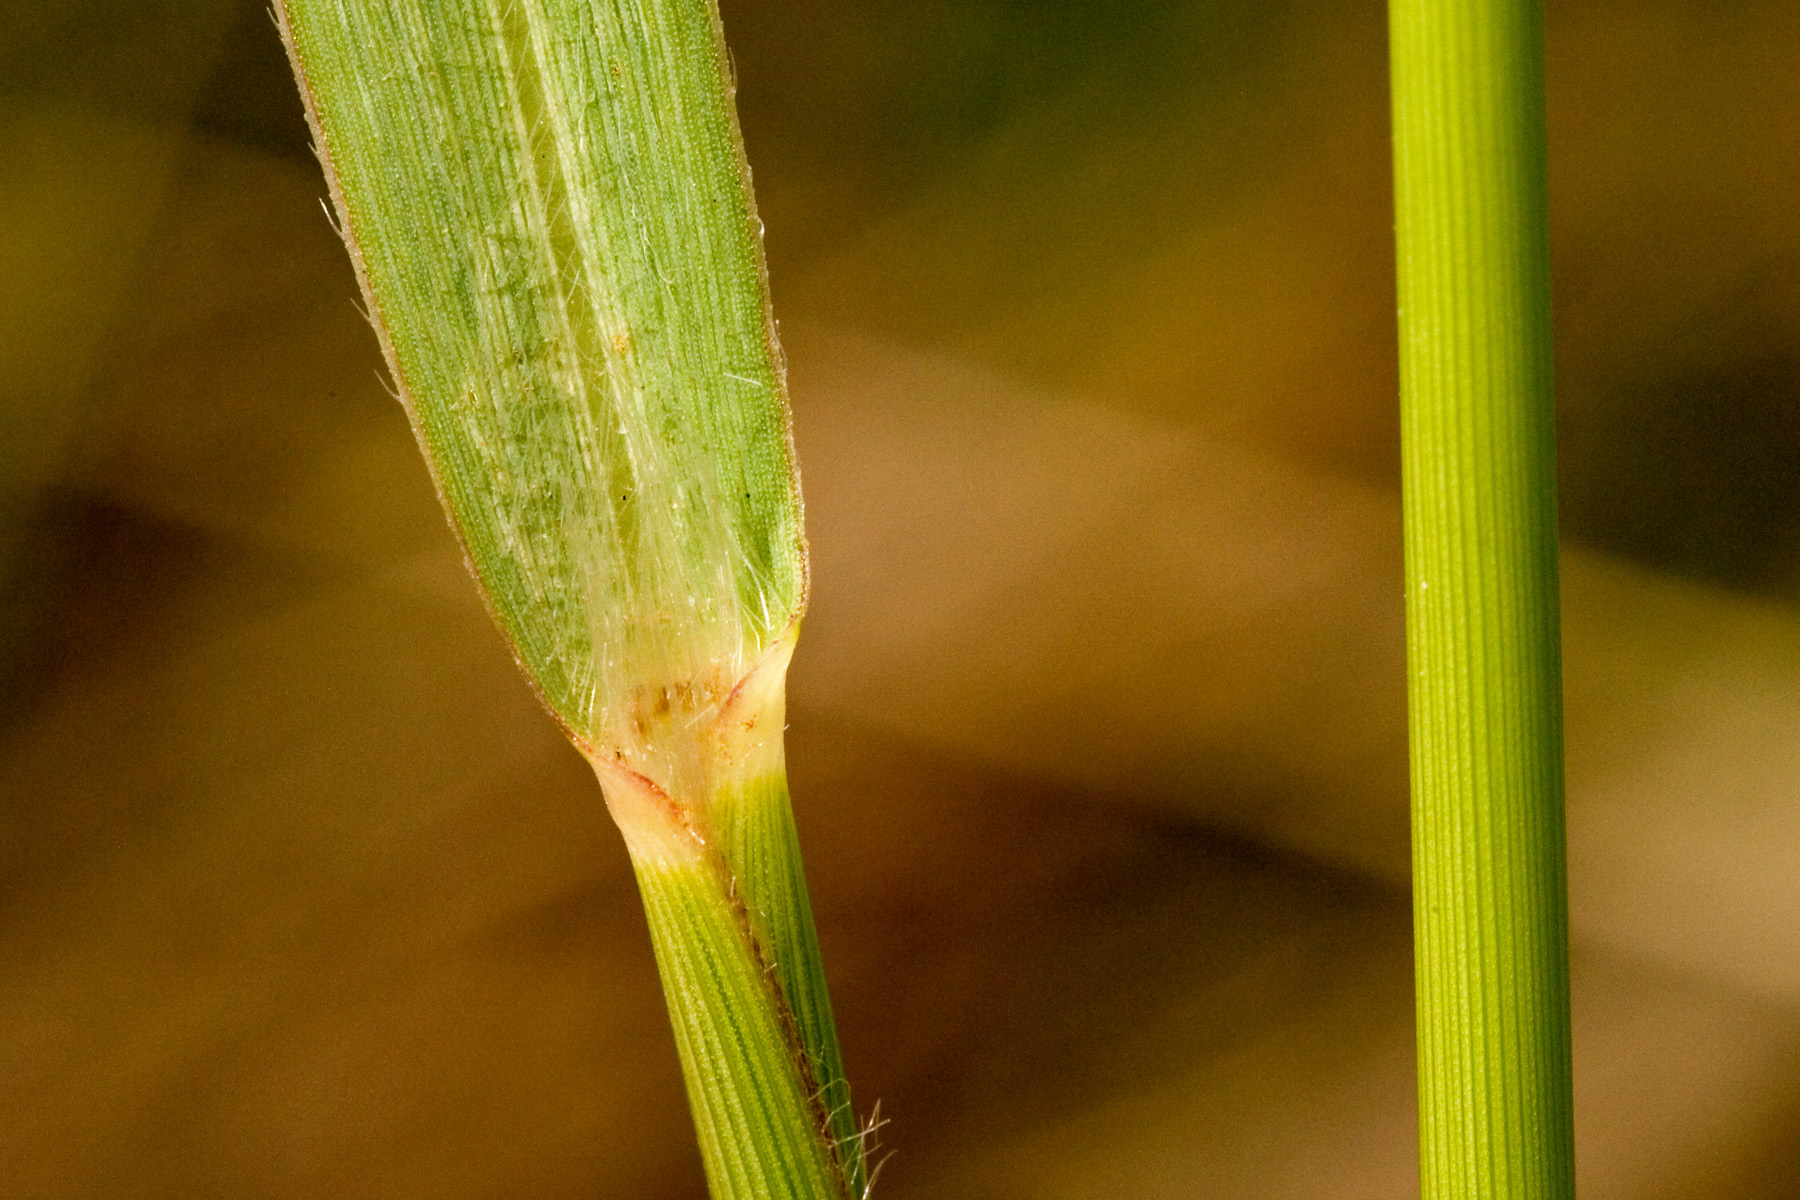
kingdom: Plantae
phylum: Tracheophyta
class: Liliopsida
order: Poales
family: Poaceae
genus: Panicum
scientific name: Panicum virgatum
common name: Switchgrass
